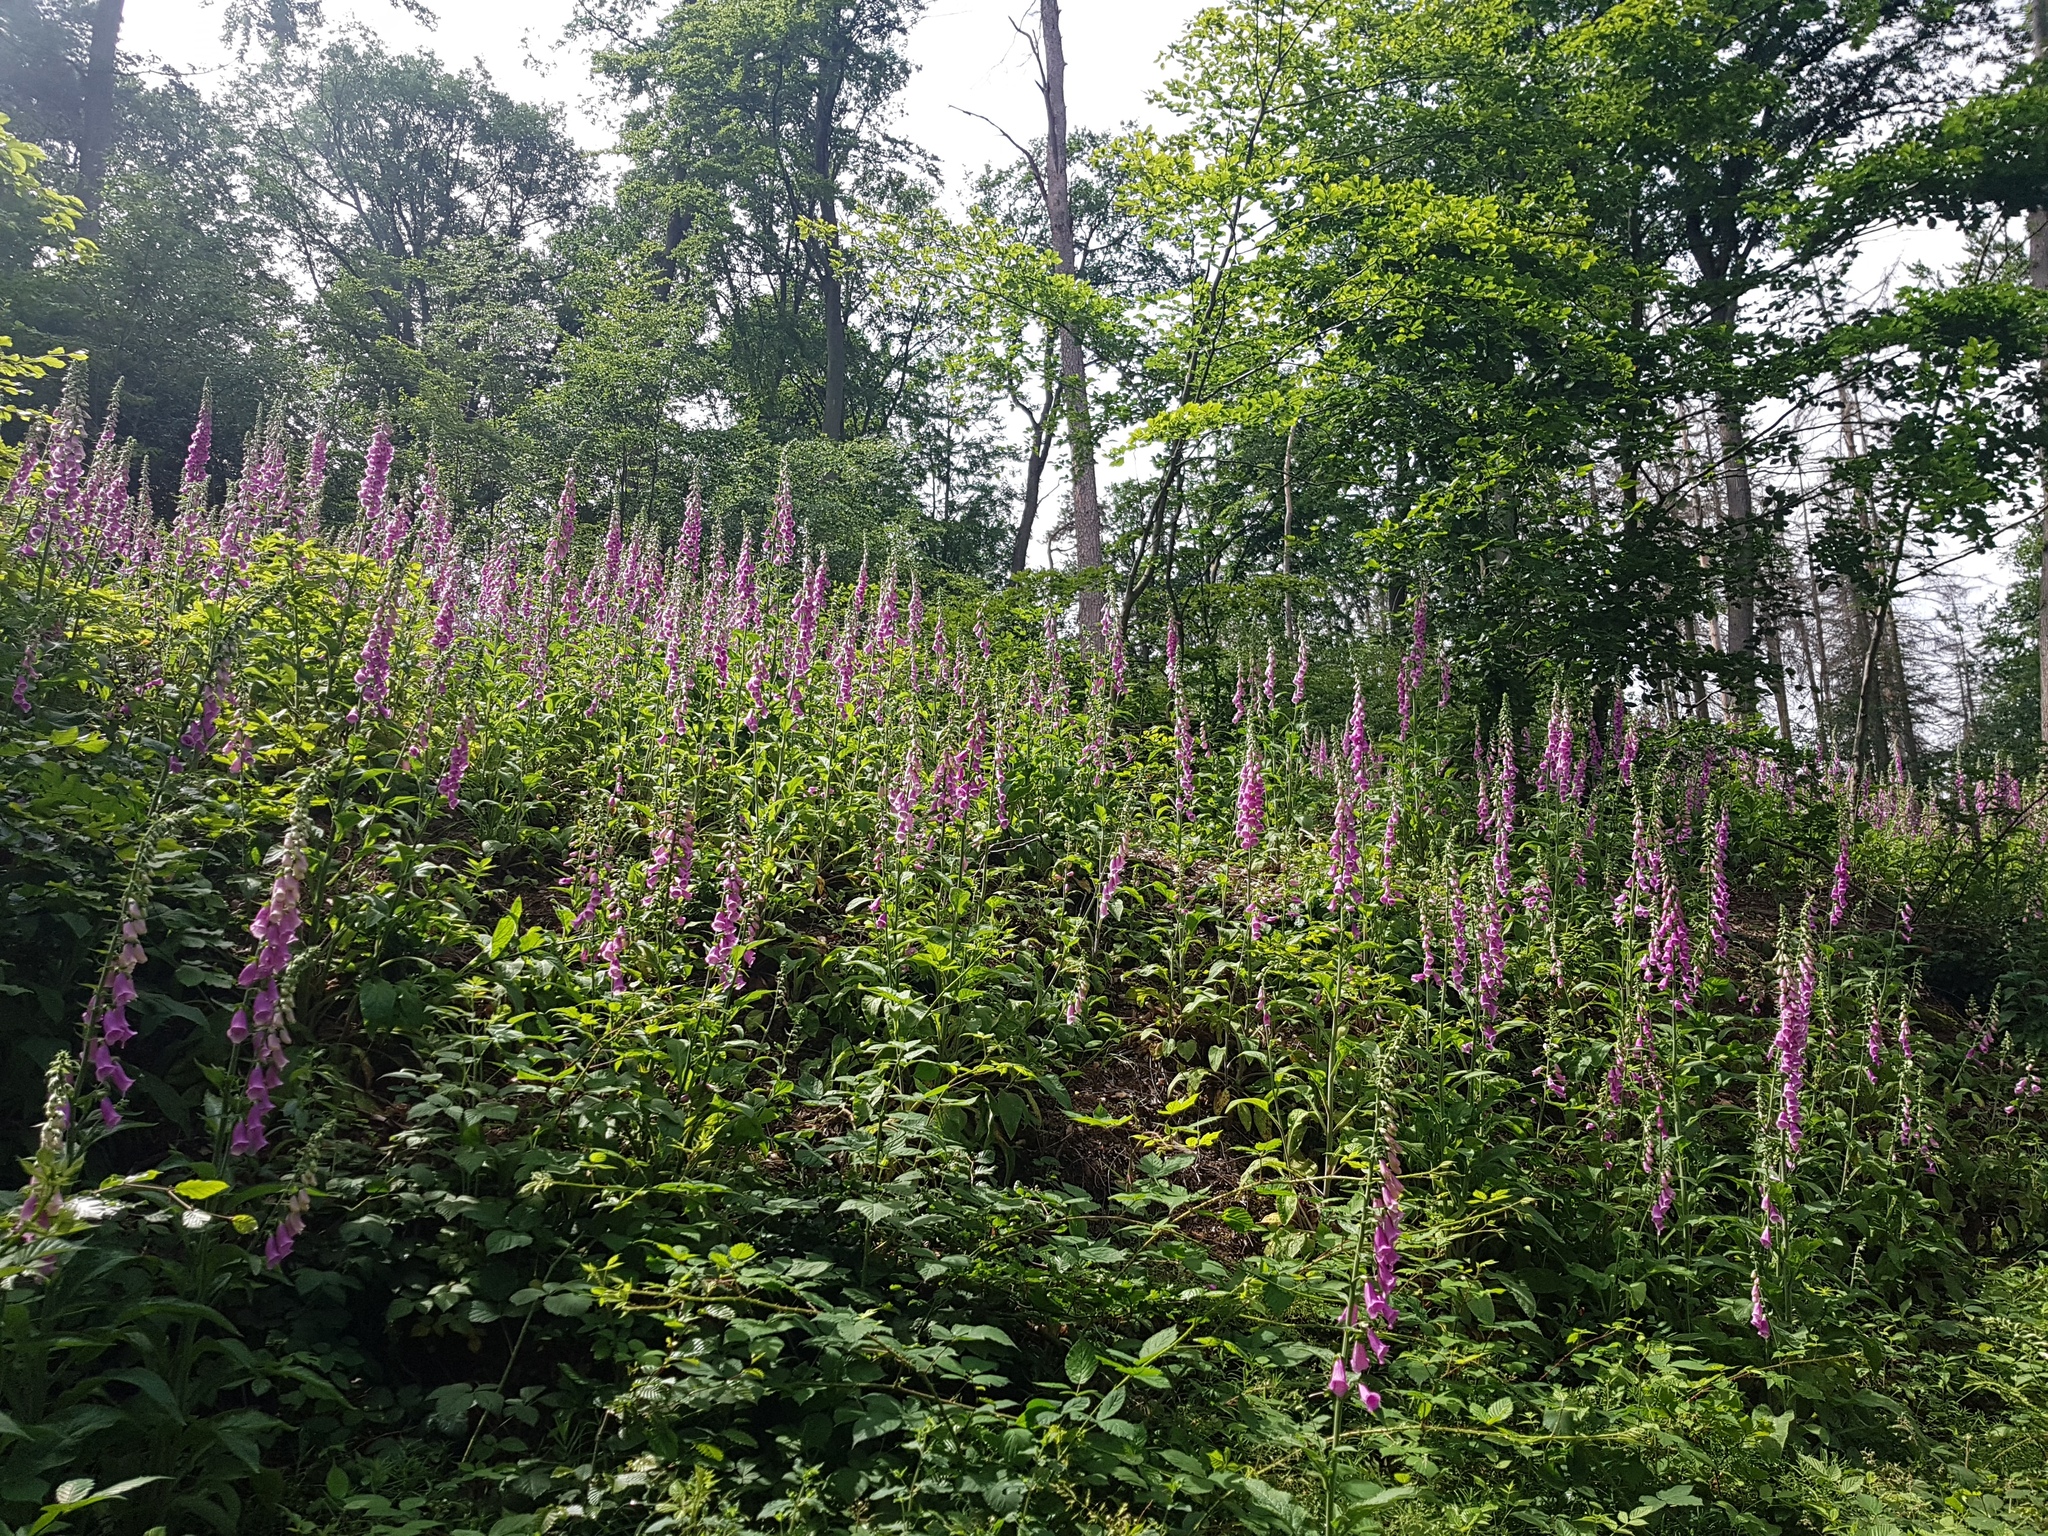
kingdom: Plantae
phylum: Tracheophyta
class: Magnoliopsida
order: Lamiales
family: Plantaginaceae
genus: Digitalis
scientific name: Digitalis purpurea
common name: Foxglove
